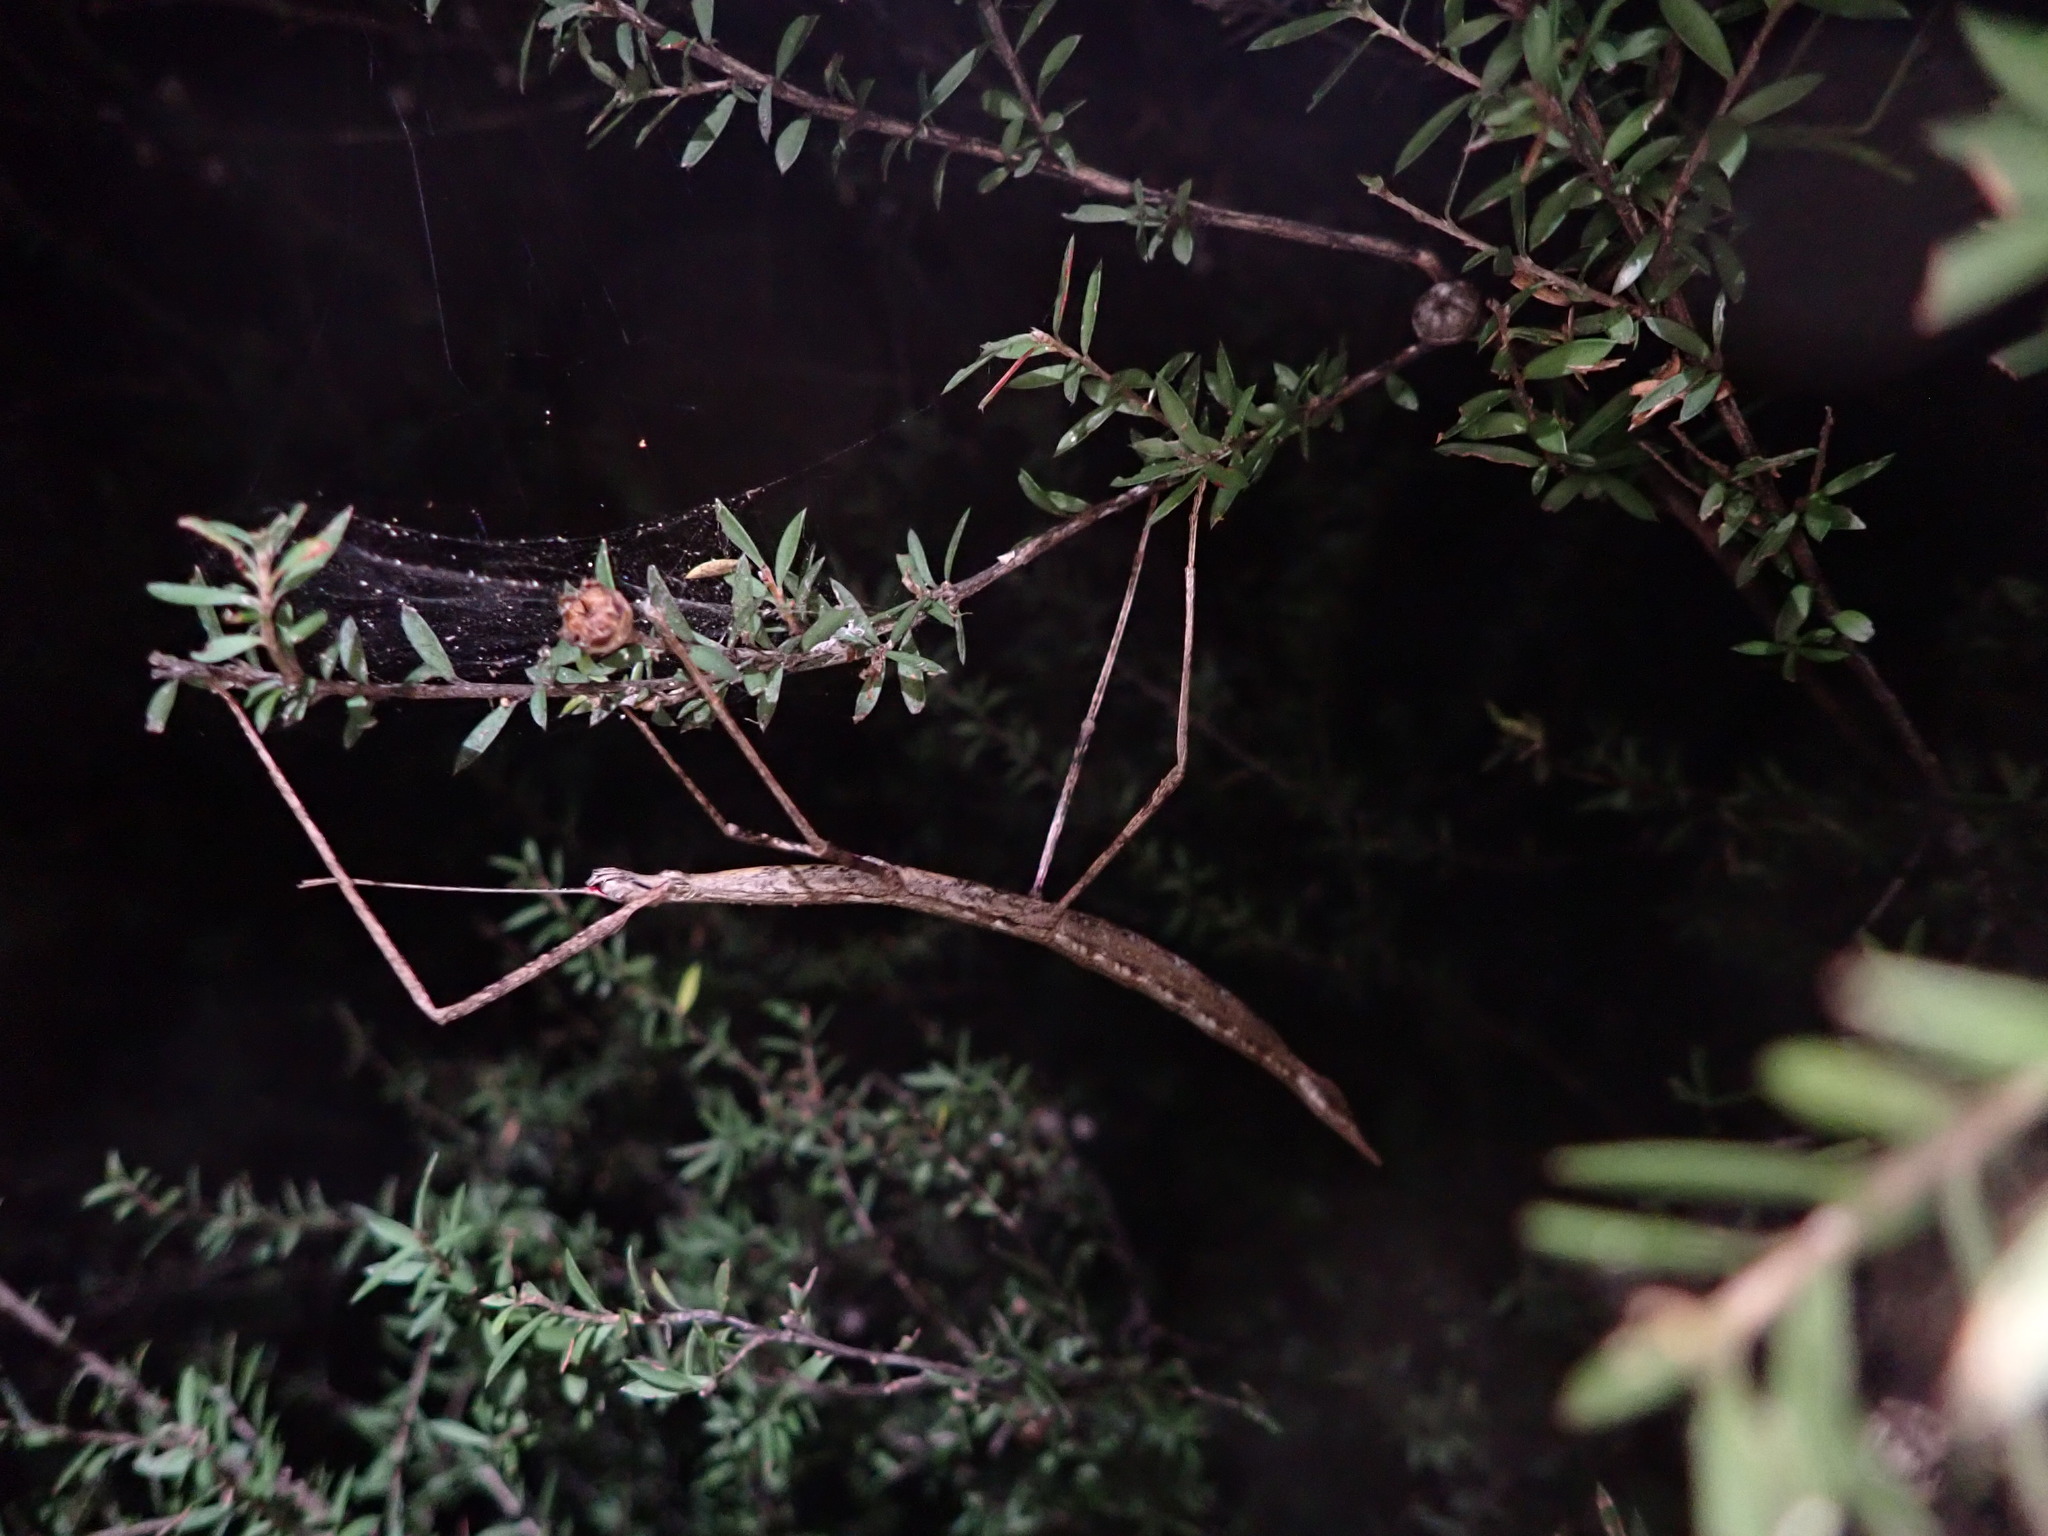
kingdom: Animalia
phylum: Arthropoda
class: Insecta
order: Phasmida
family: Phasmatidae
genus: Argosarchus
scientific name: Argosarchus horridus
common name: Bristly stick insect
